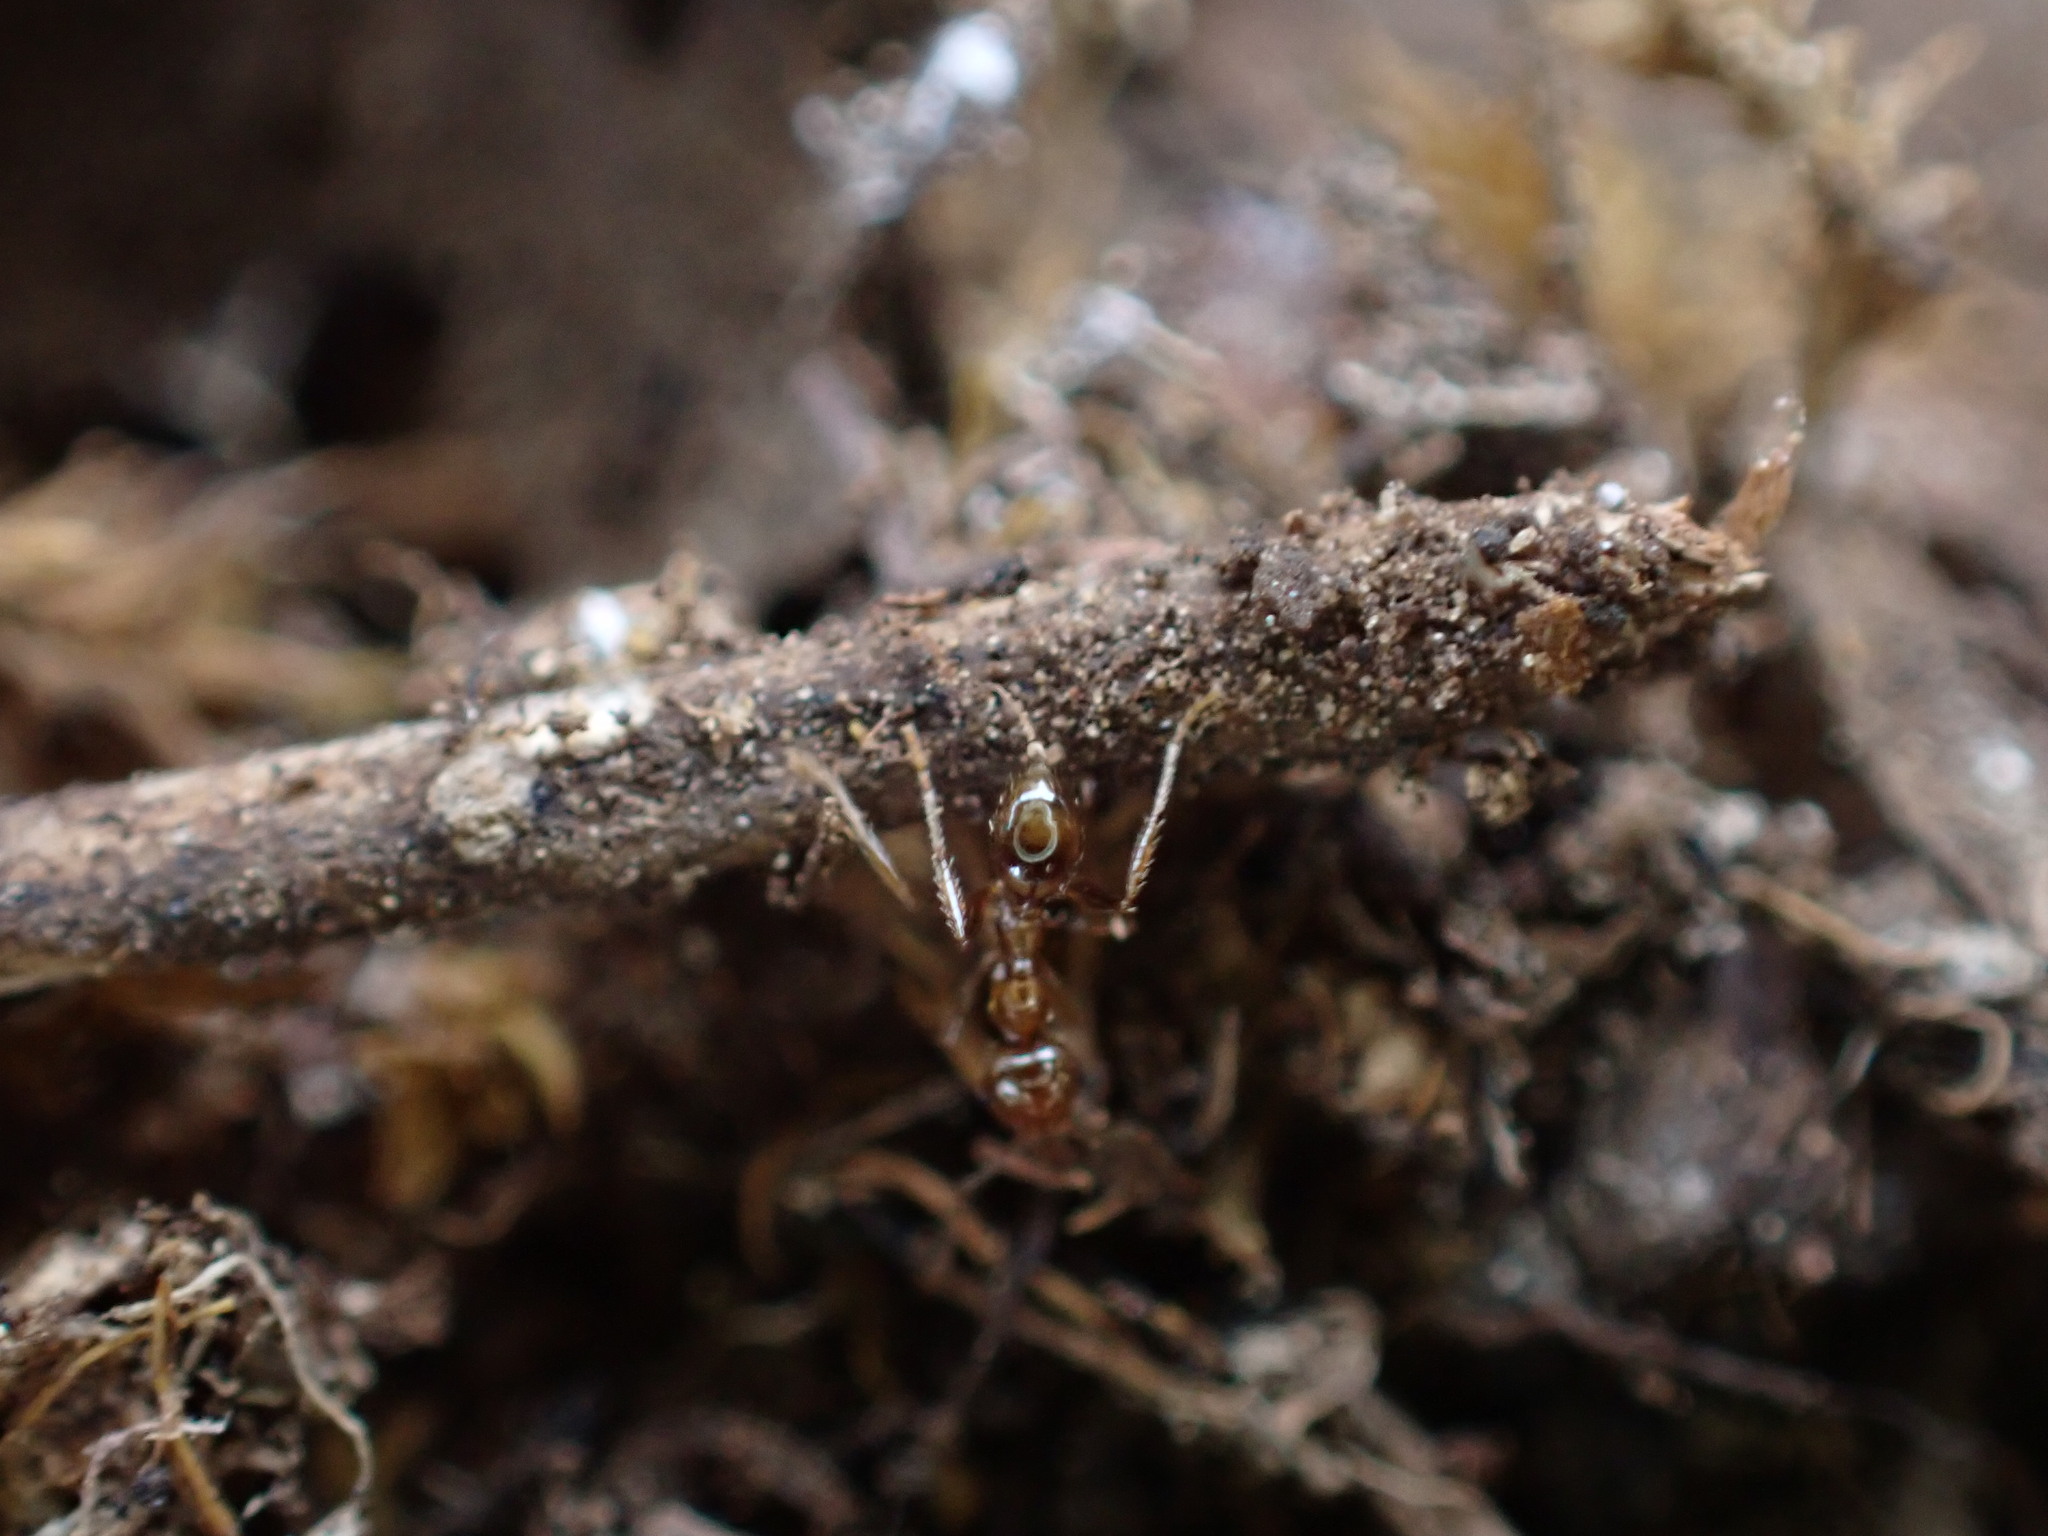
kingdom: Animalia
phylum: Arthropoda
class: Insecta
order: Hymenoptera
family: Formicidae
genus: Pheidole
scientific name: Pheidole pallidula
